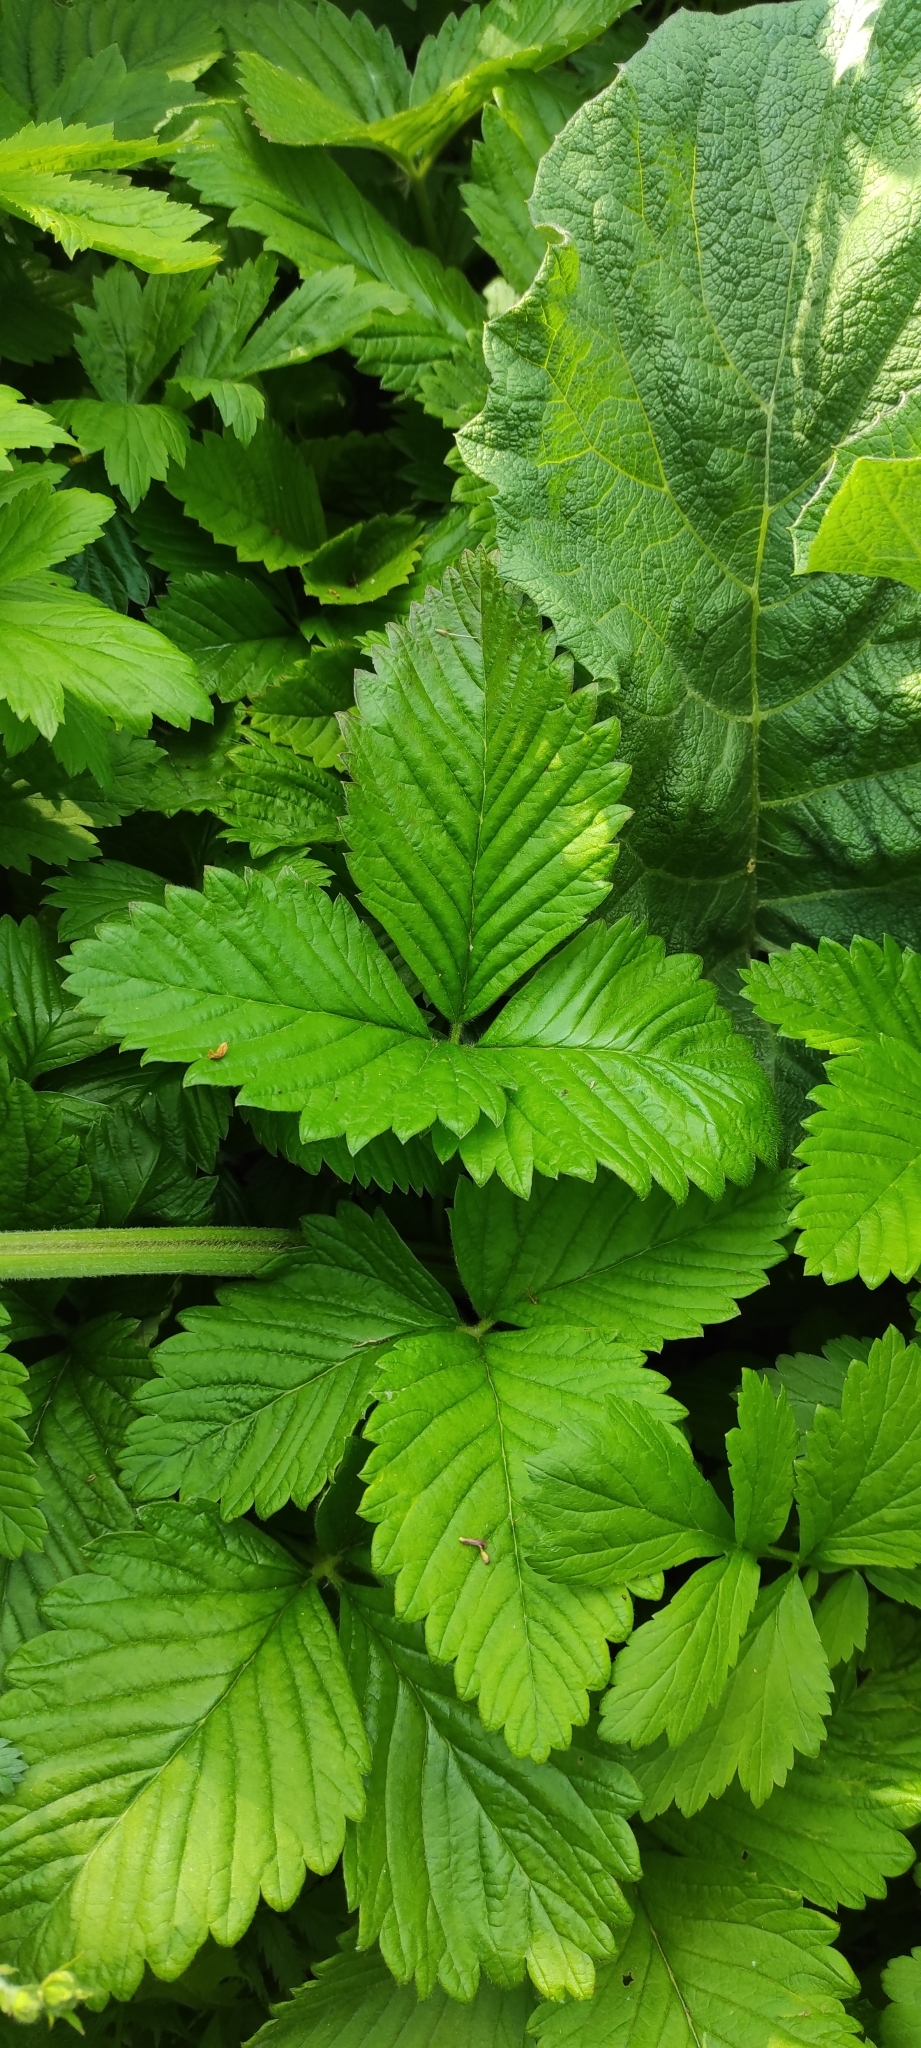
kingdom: Plantae
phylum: Tracheophyta
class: Magnoliopsida
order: Rosales
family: Rosaceae
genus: Fragaria
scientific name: Fragaria moschata
